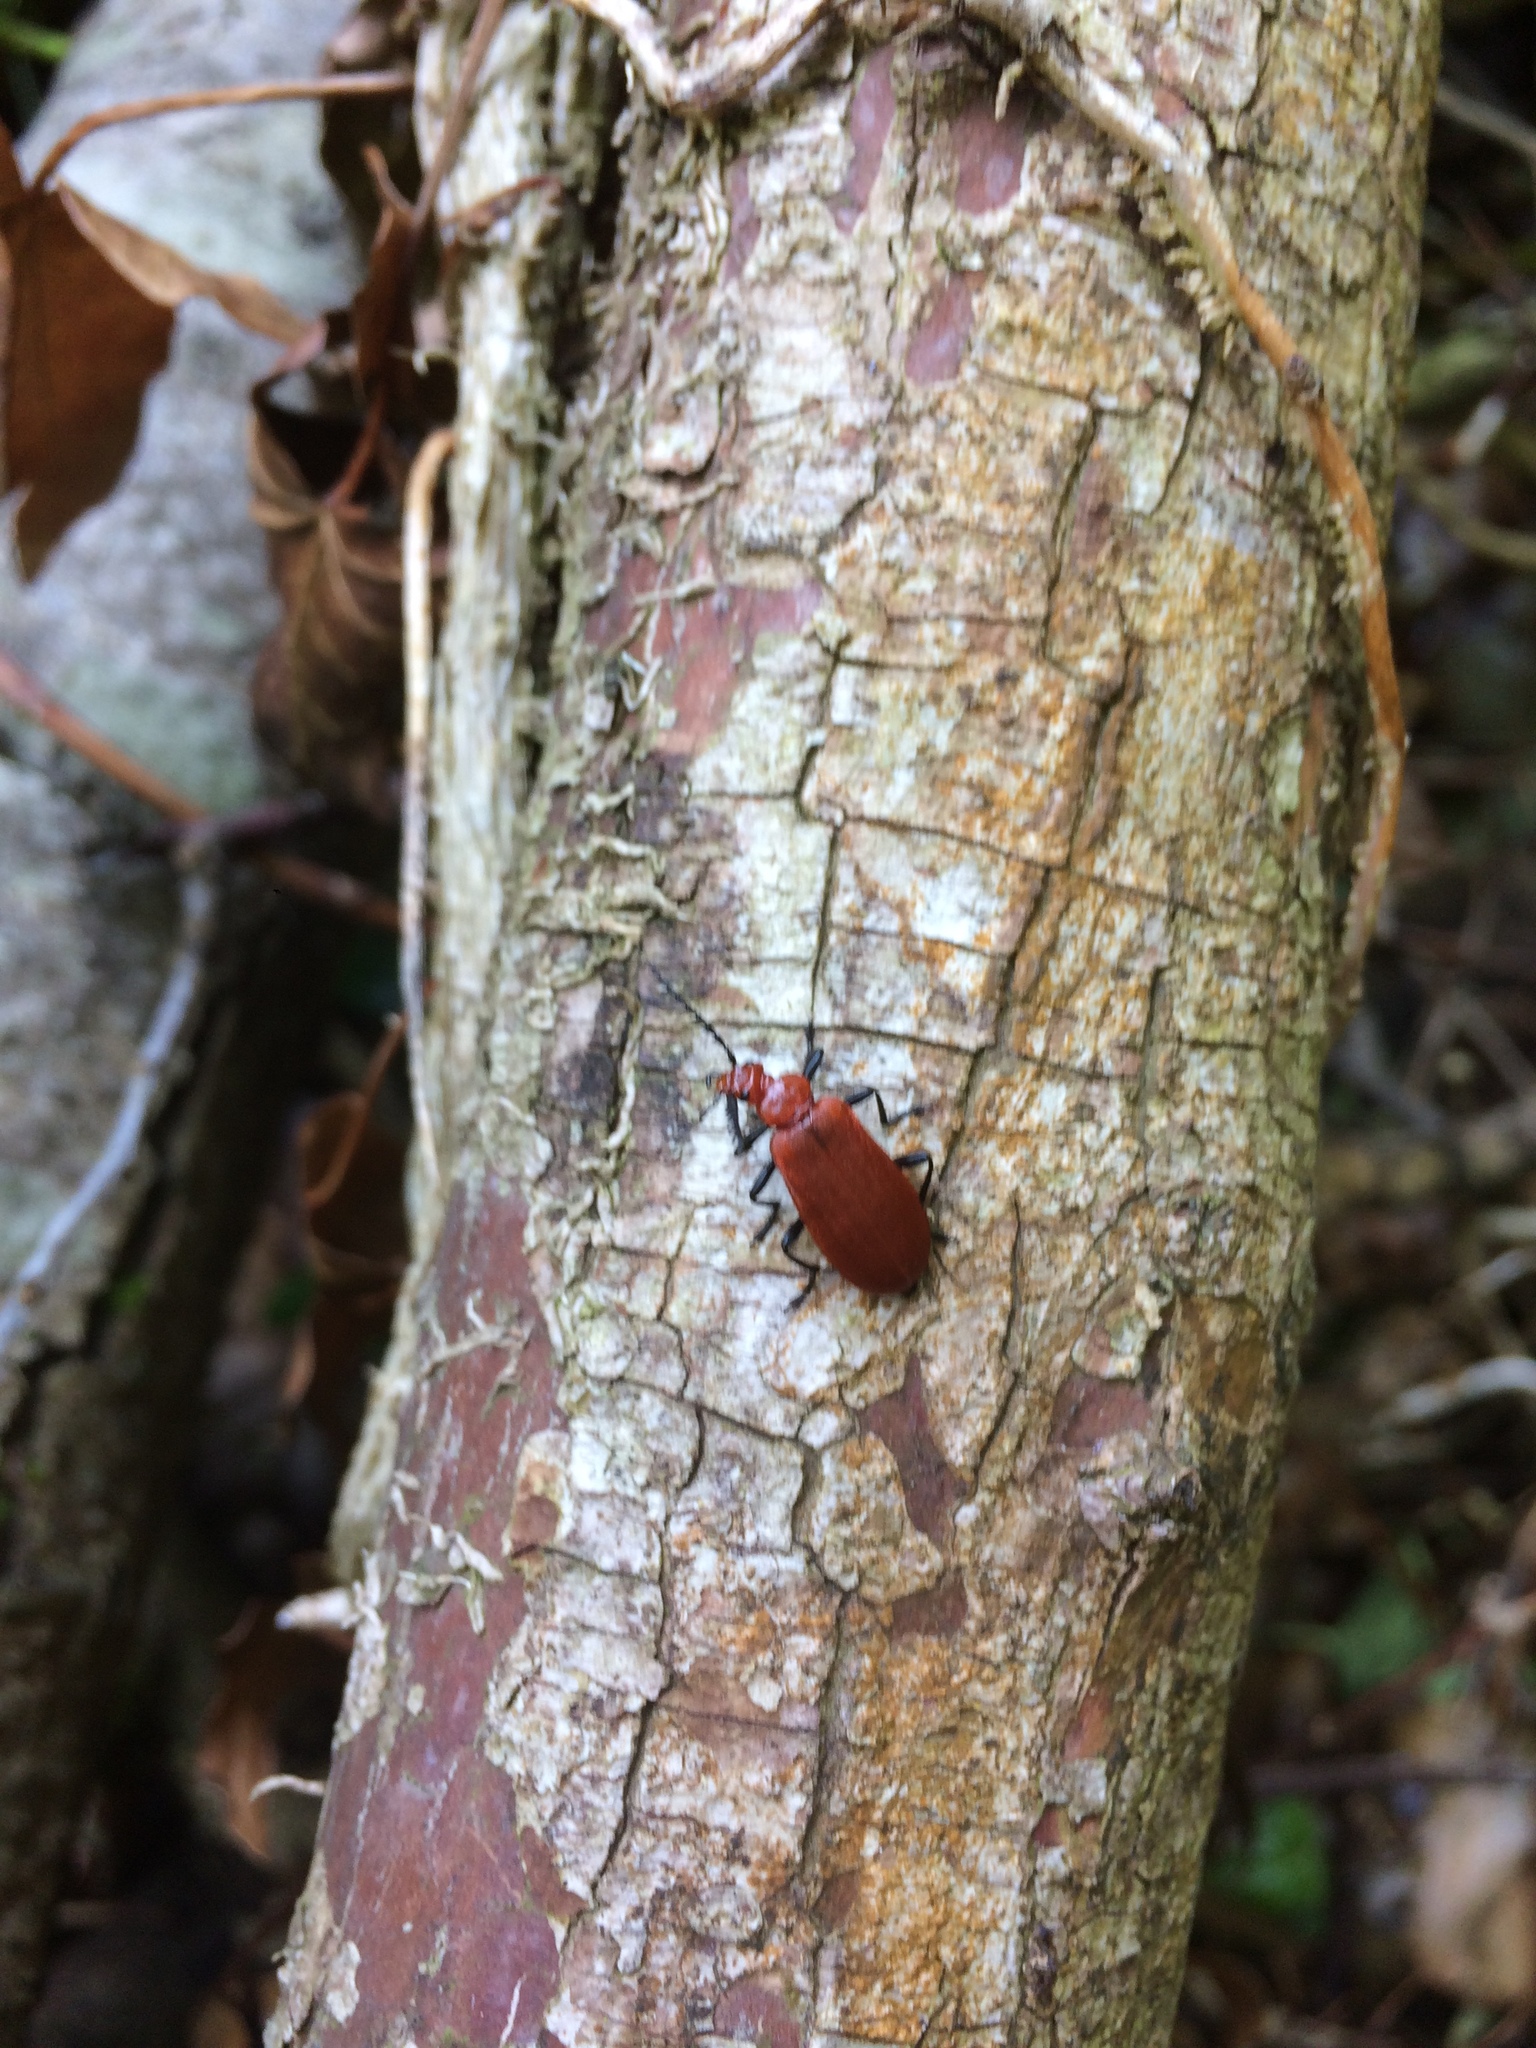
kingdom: Animalia
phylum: Arthropoda
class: Insecta
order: Coleoptera
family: Pyrochroidae
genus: Pyrochroa
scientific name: Pyrochroa serraticornis
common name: Red-headed cardinal beetle
